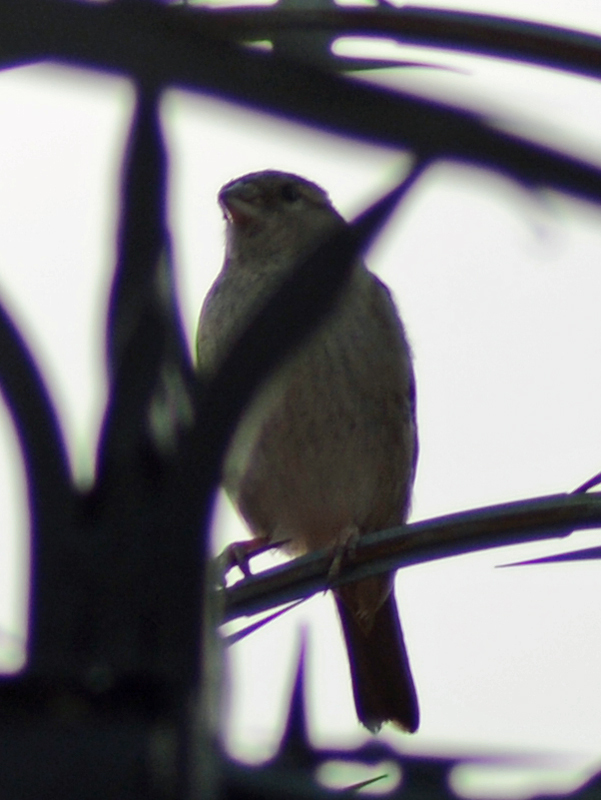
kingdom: Animalia
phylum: Chordata
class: Aves
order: Passeriformes
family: Fringillidae
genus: Haemorhous
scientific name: Haemorhous mexicanus
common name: House finch
